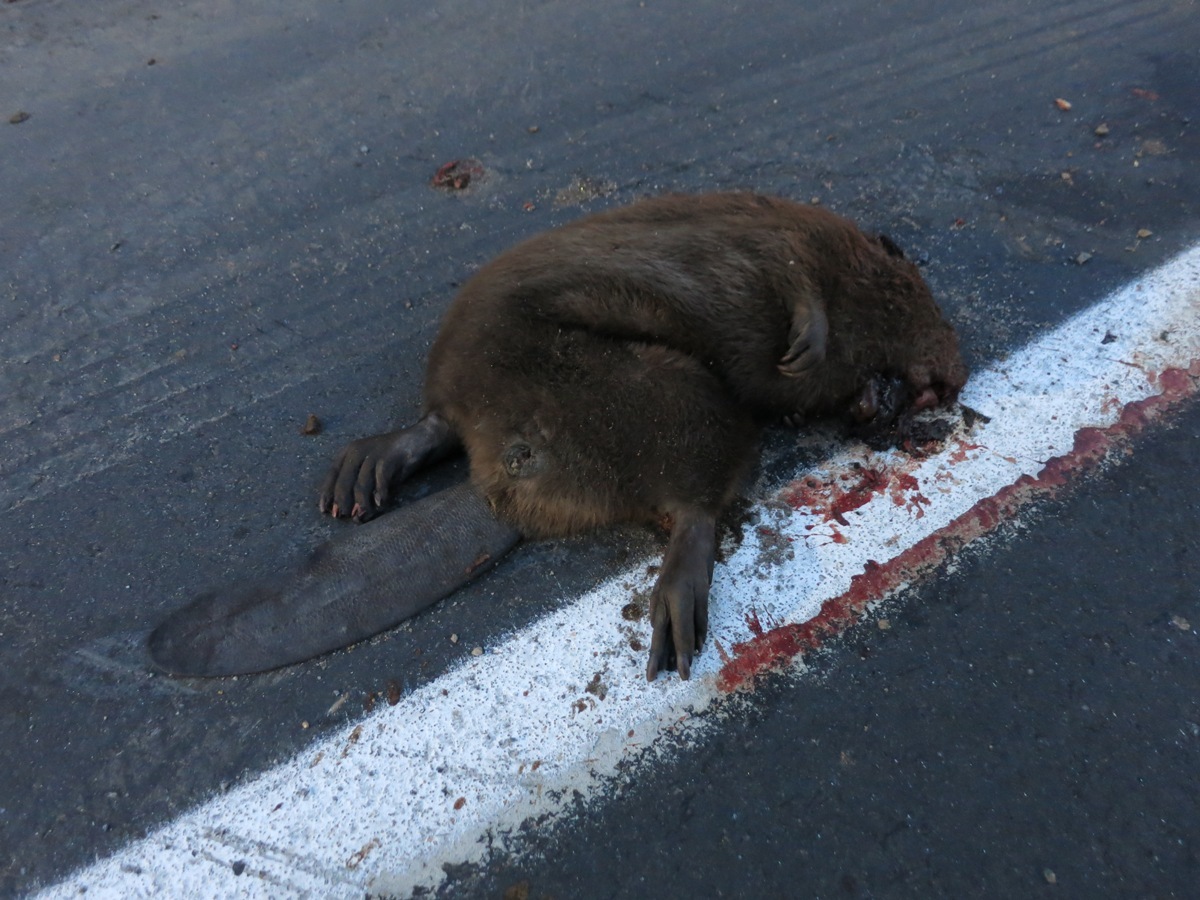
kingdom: Animalia
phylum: Chordata
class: Mammalia
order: Rodentia
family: Castoridae
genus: Castor
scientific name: Castor canadensis
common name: American beaver
